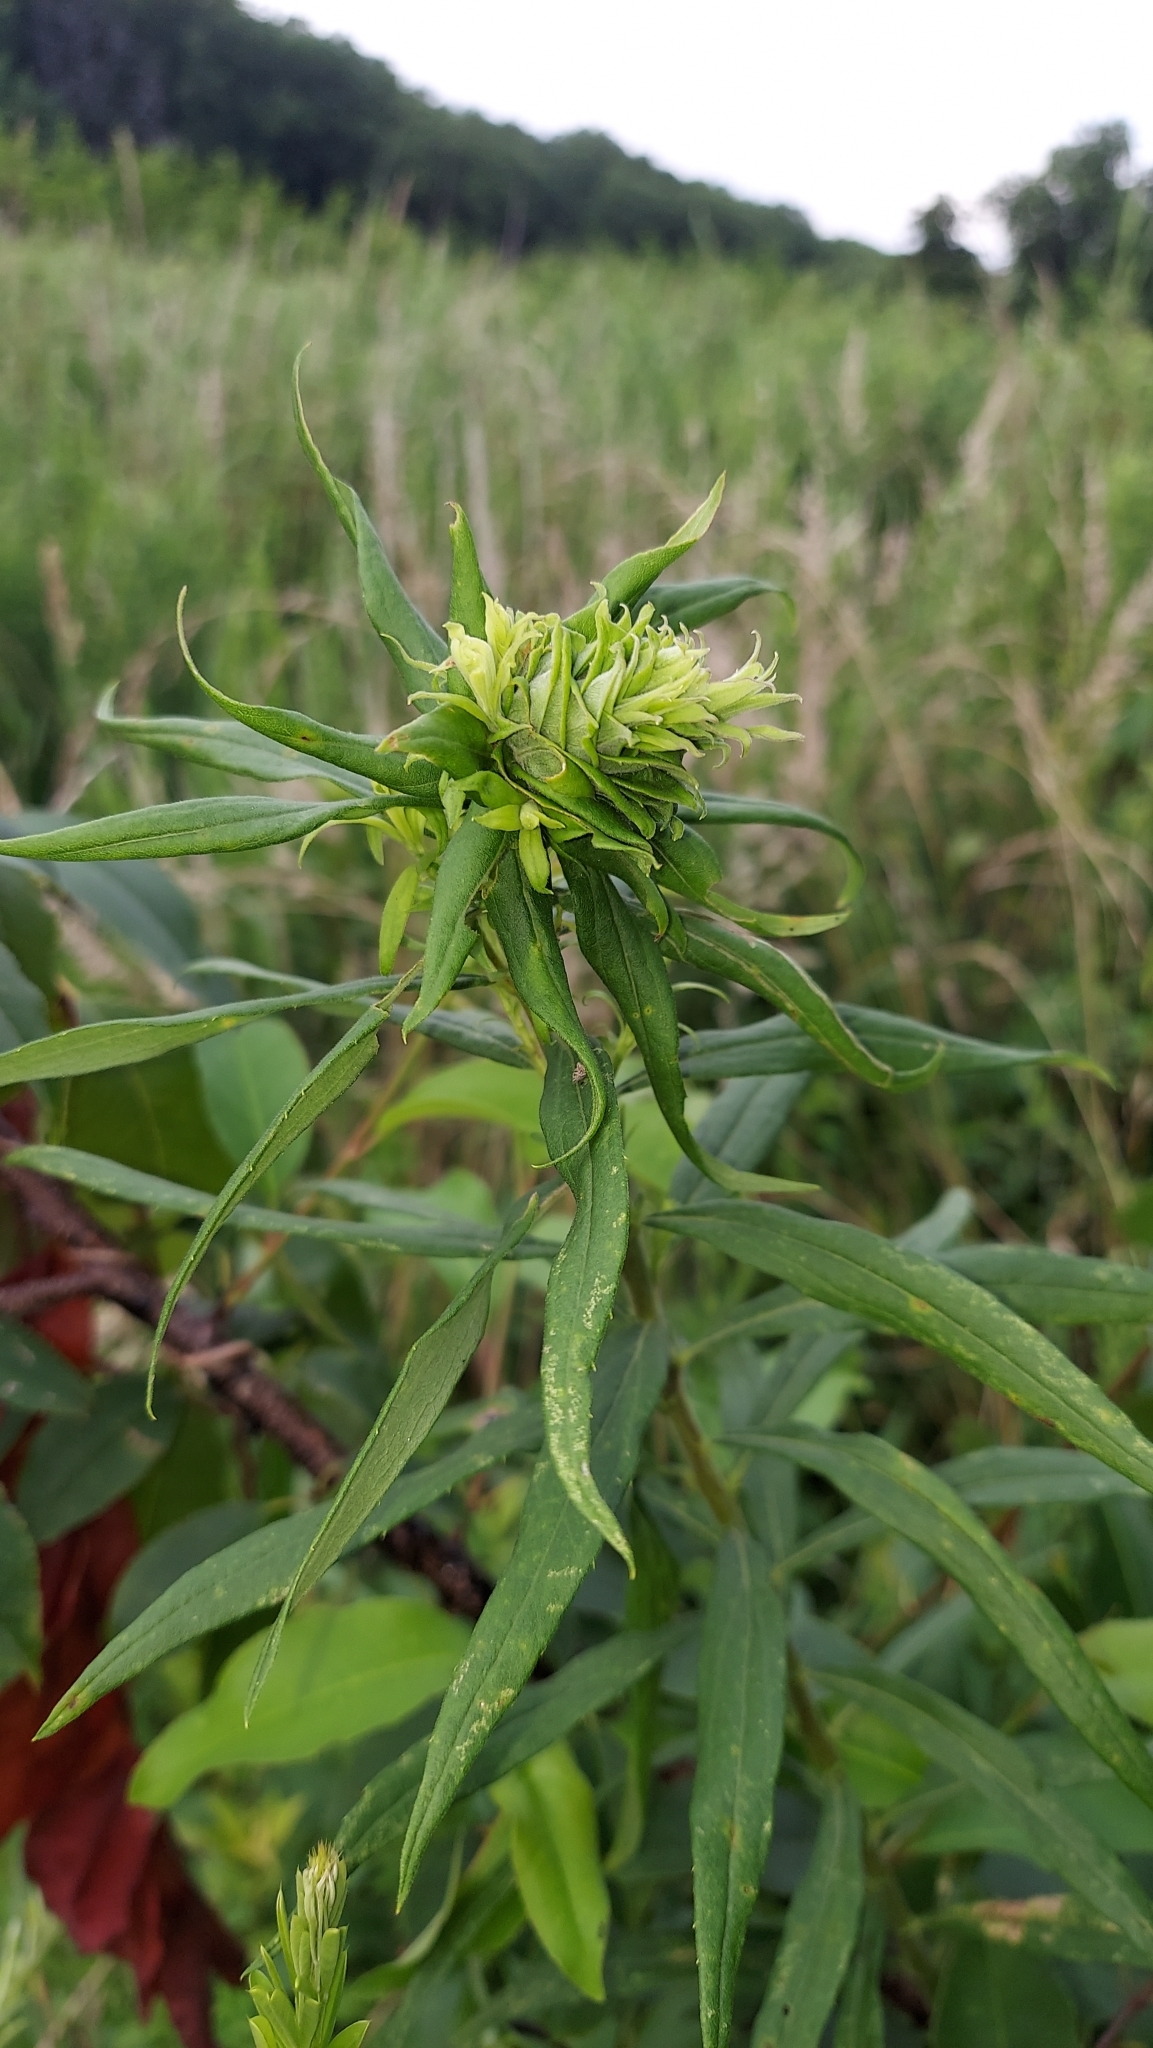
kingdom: Animalia
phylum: Arthropoda
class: Insecta
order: Diptera
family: Cecidomyiidae
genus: Rhopalomyia
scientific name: Rhopalomyia solidaginis
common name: Goldenrod bunch gall midge
